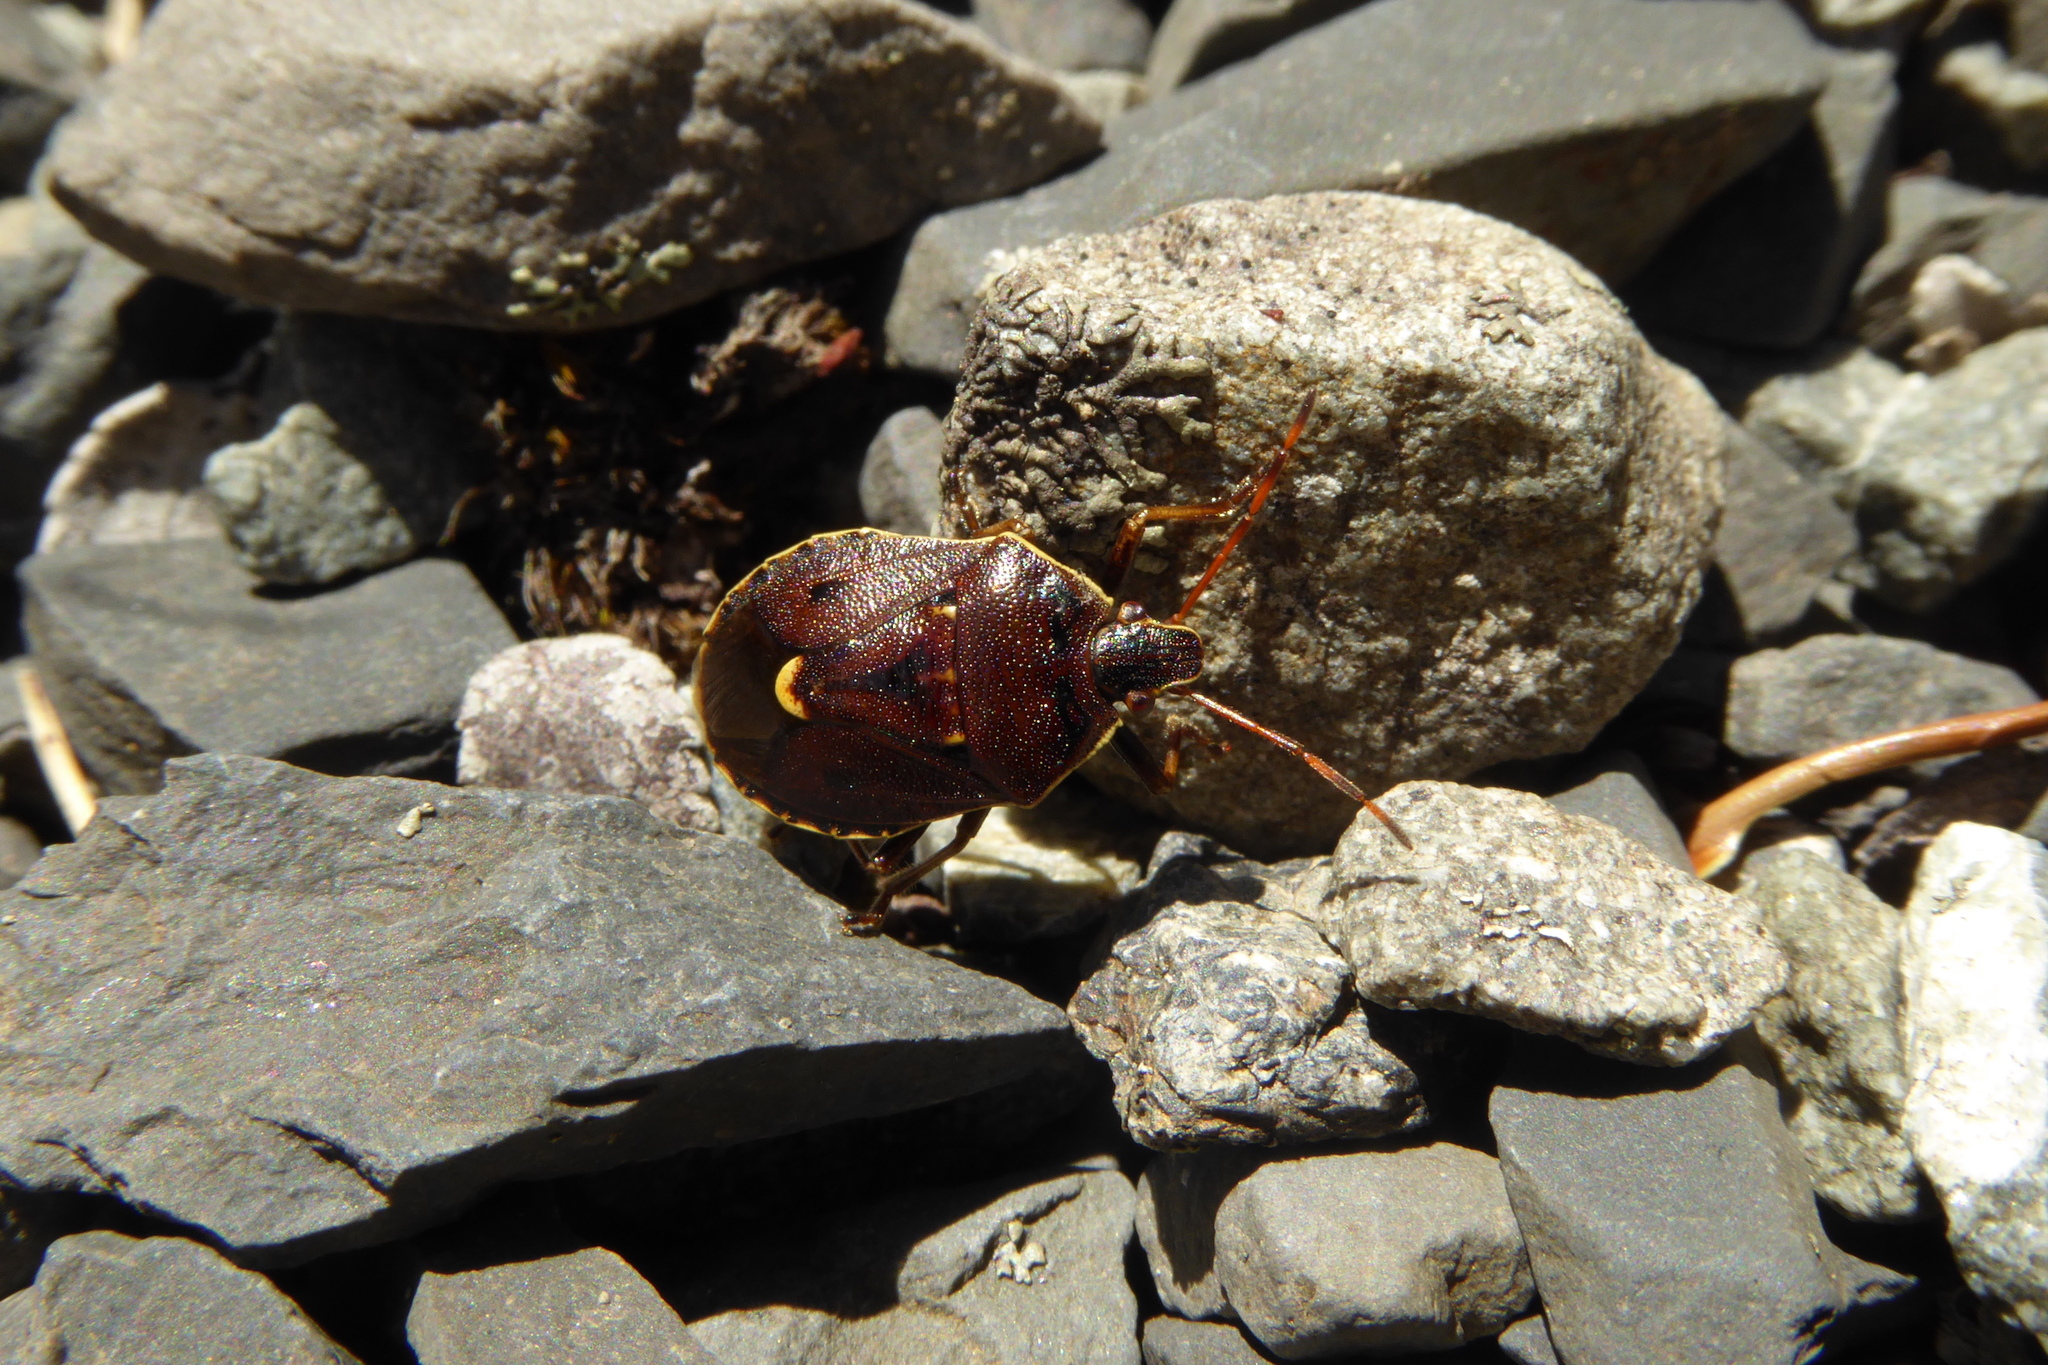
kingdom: Animalia
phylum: Arthropoda
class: Insecta
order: Hemiptera
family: Pentatomidae
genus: Cermatulus
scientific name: Cermatulus nasalis
